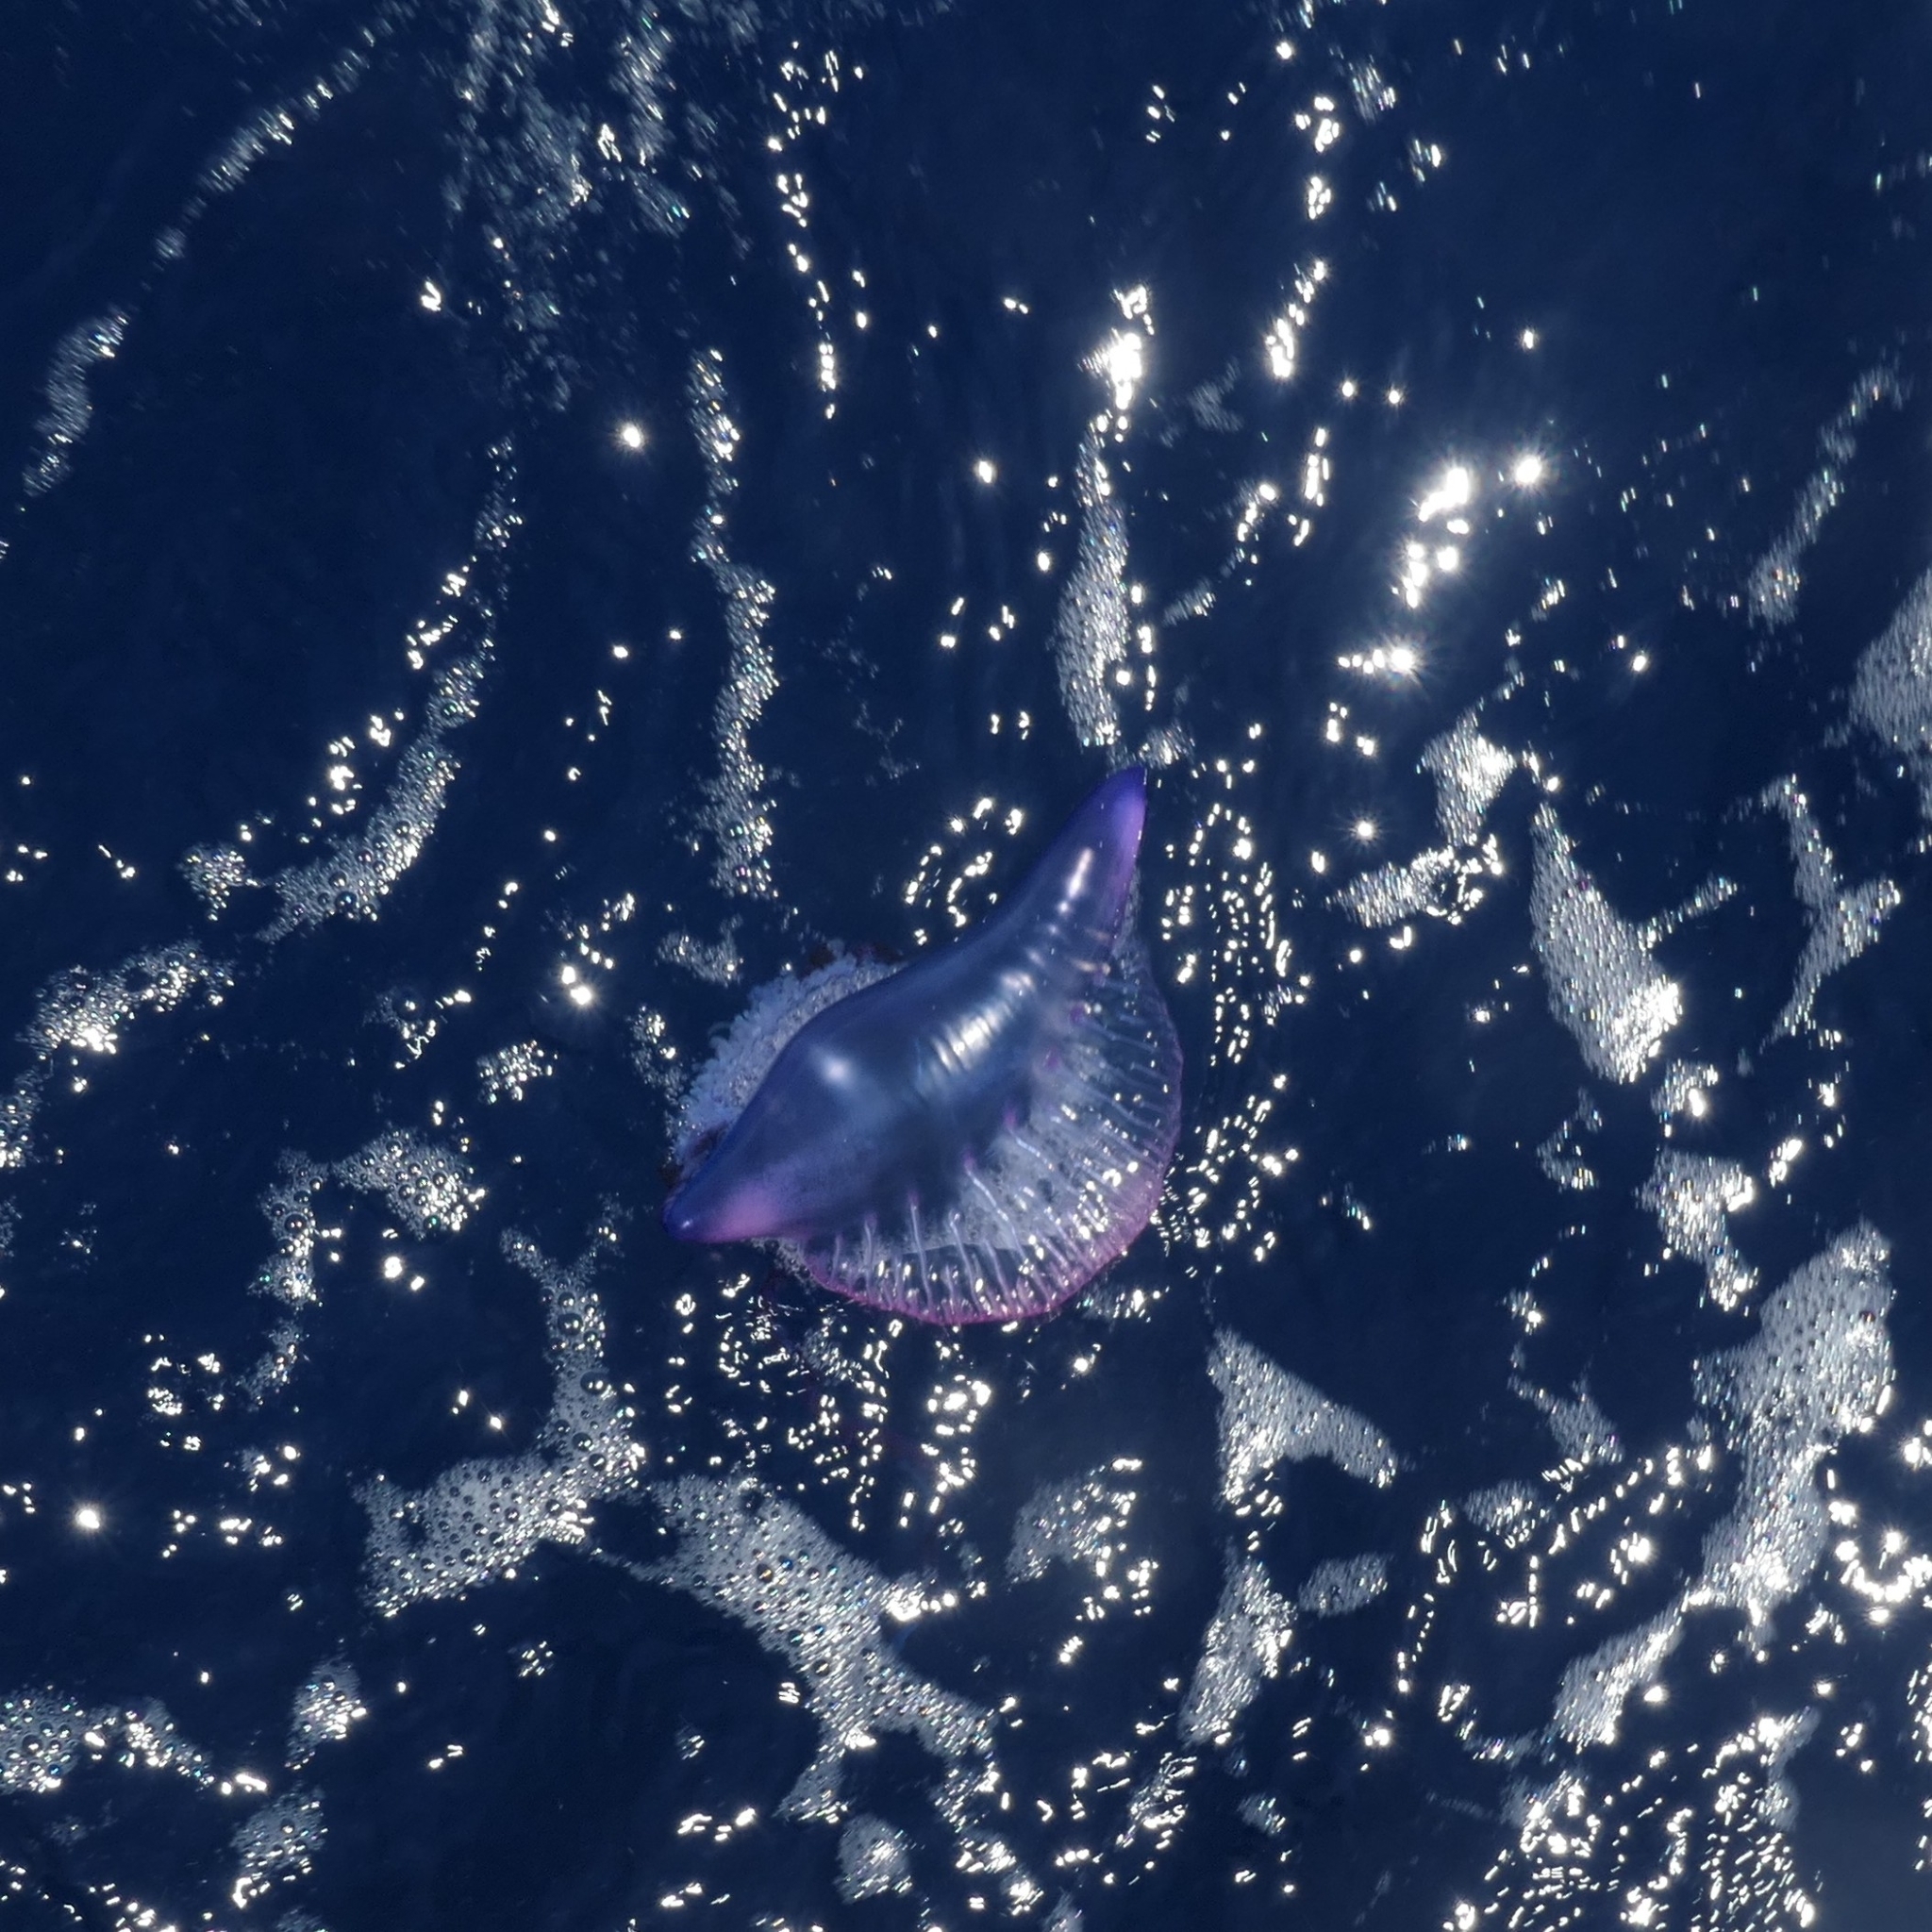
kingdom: Animalia
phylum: Cnidaria
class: Hydrozoa
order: Siphonophorae
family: Physaliidae
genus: Physalia
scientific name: Physalia physalis
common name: Portuguese man-of-war
